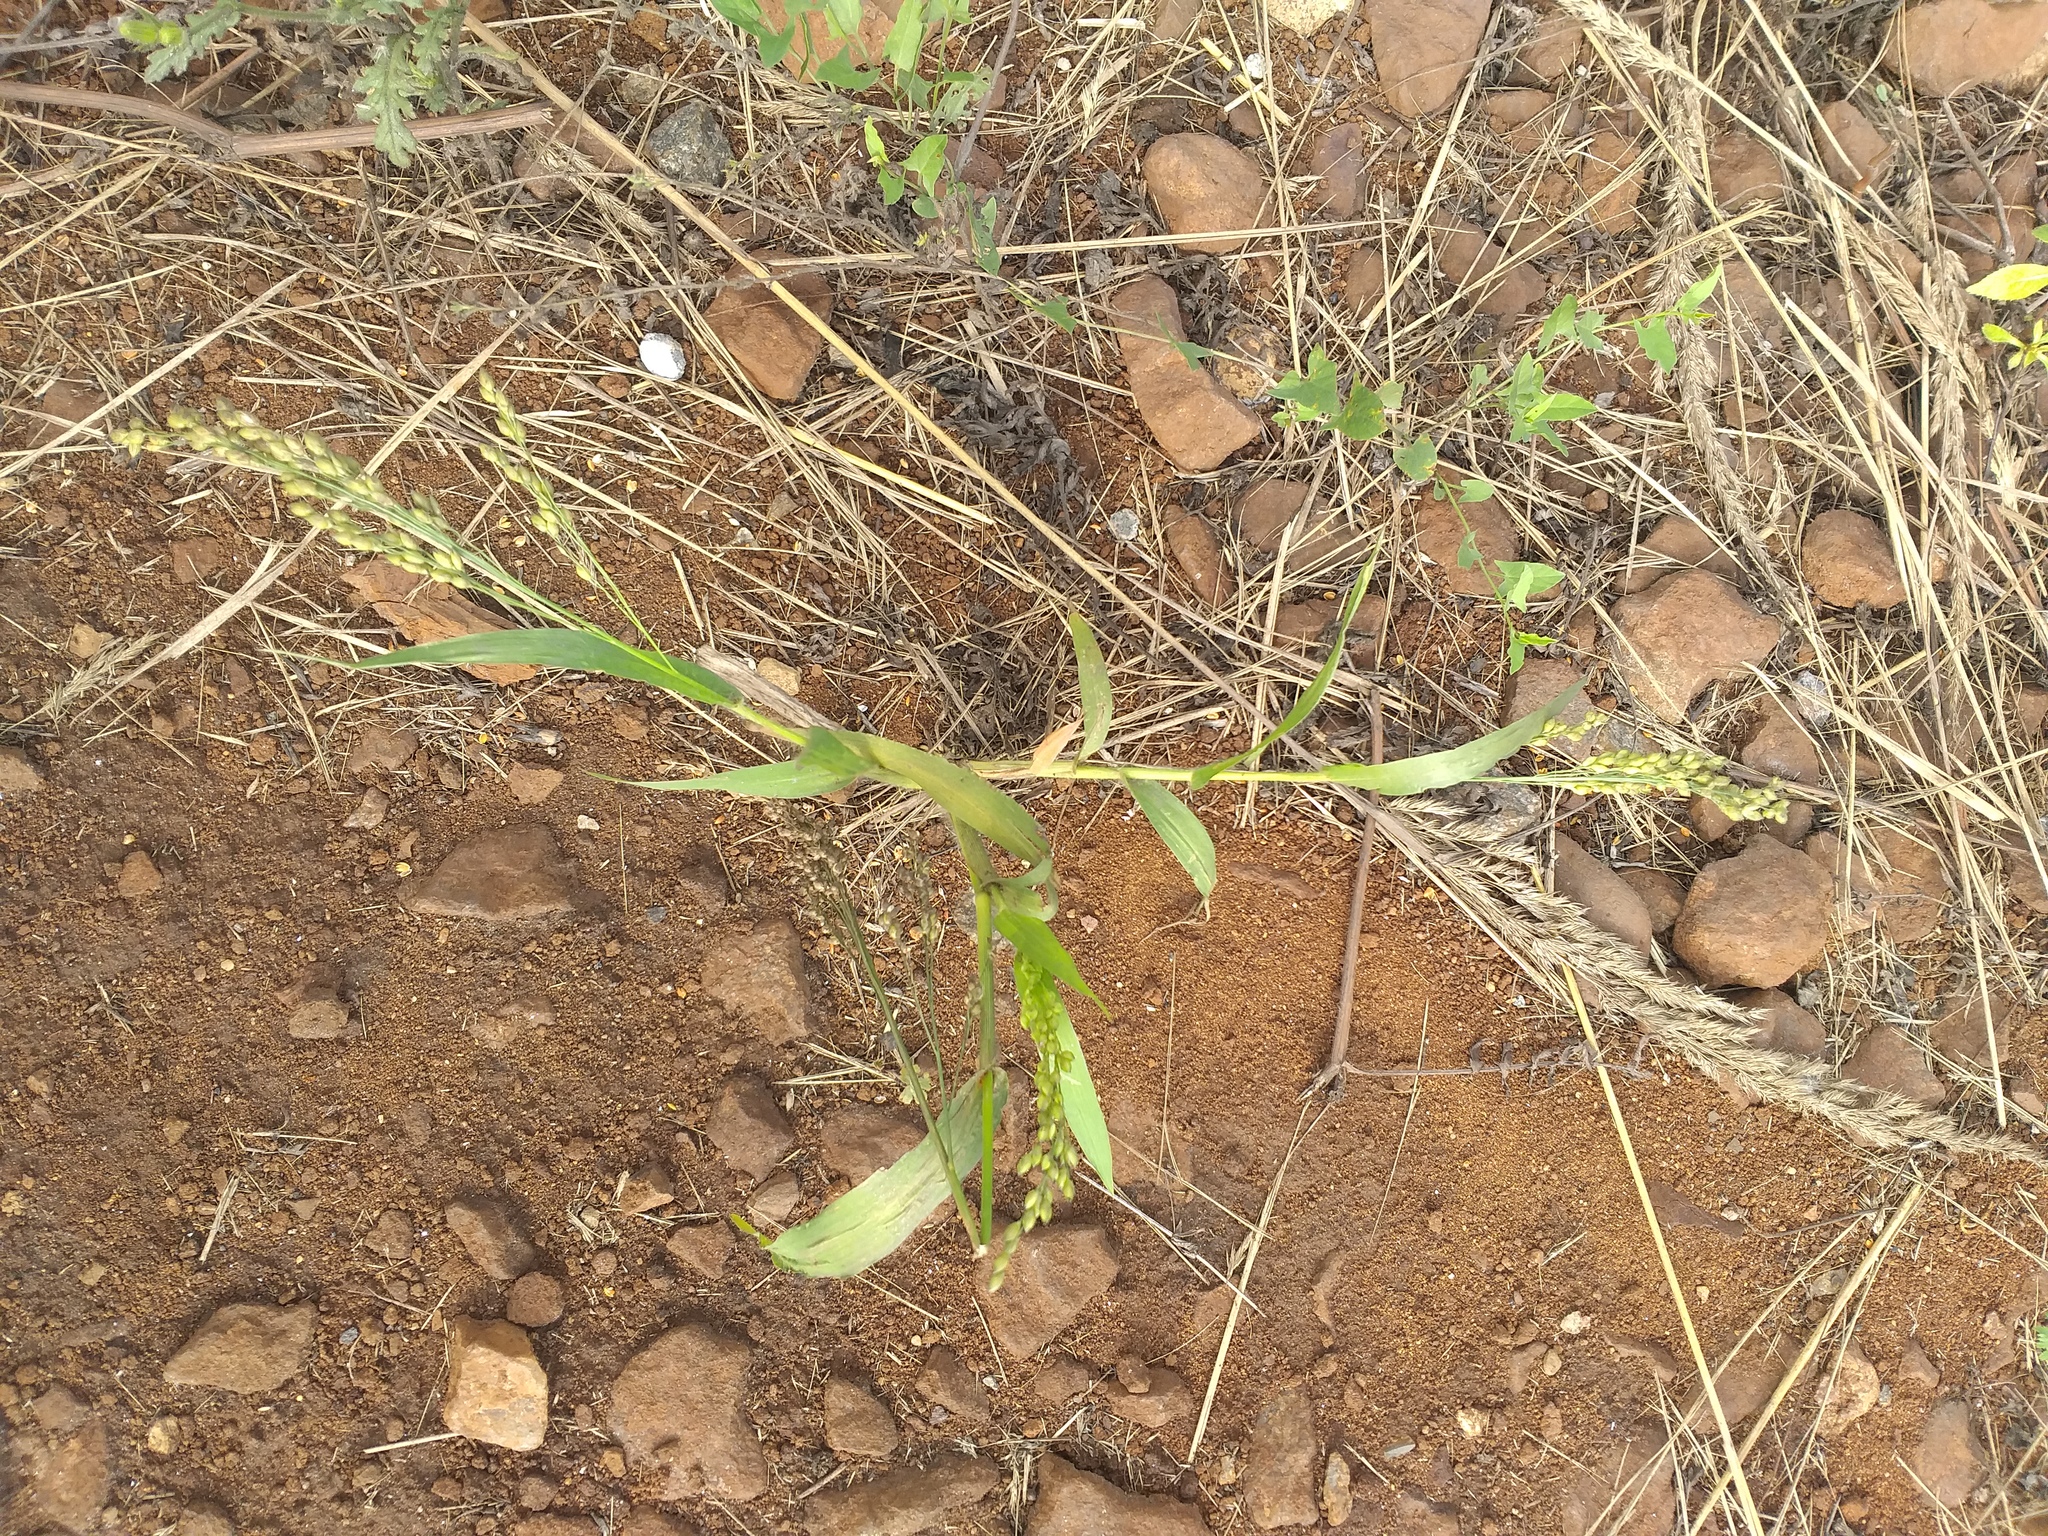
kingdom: Plantae
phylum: Tracheophyta
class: Liliopsida
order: Poales
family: Poaceae
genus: Panicum
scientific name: Panicum miliaceum
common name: Common millet
